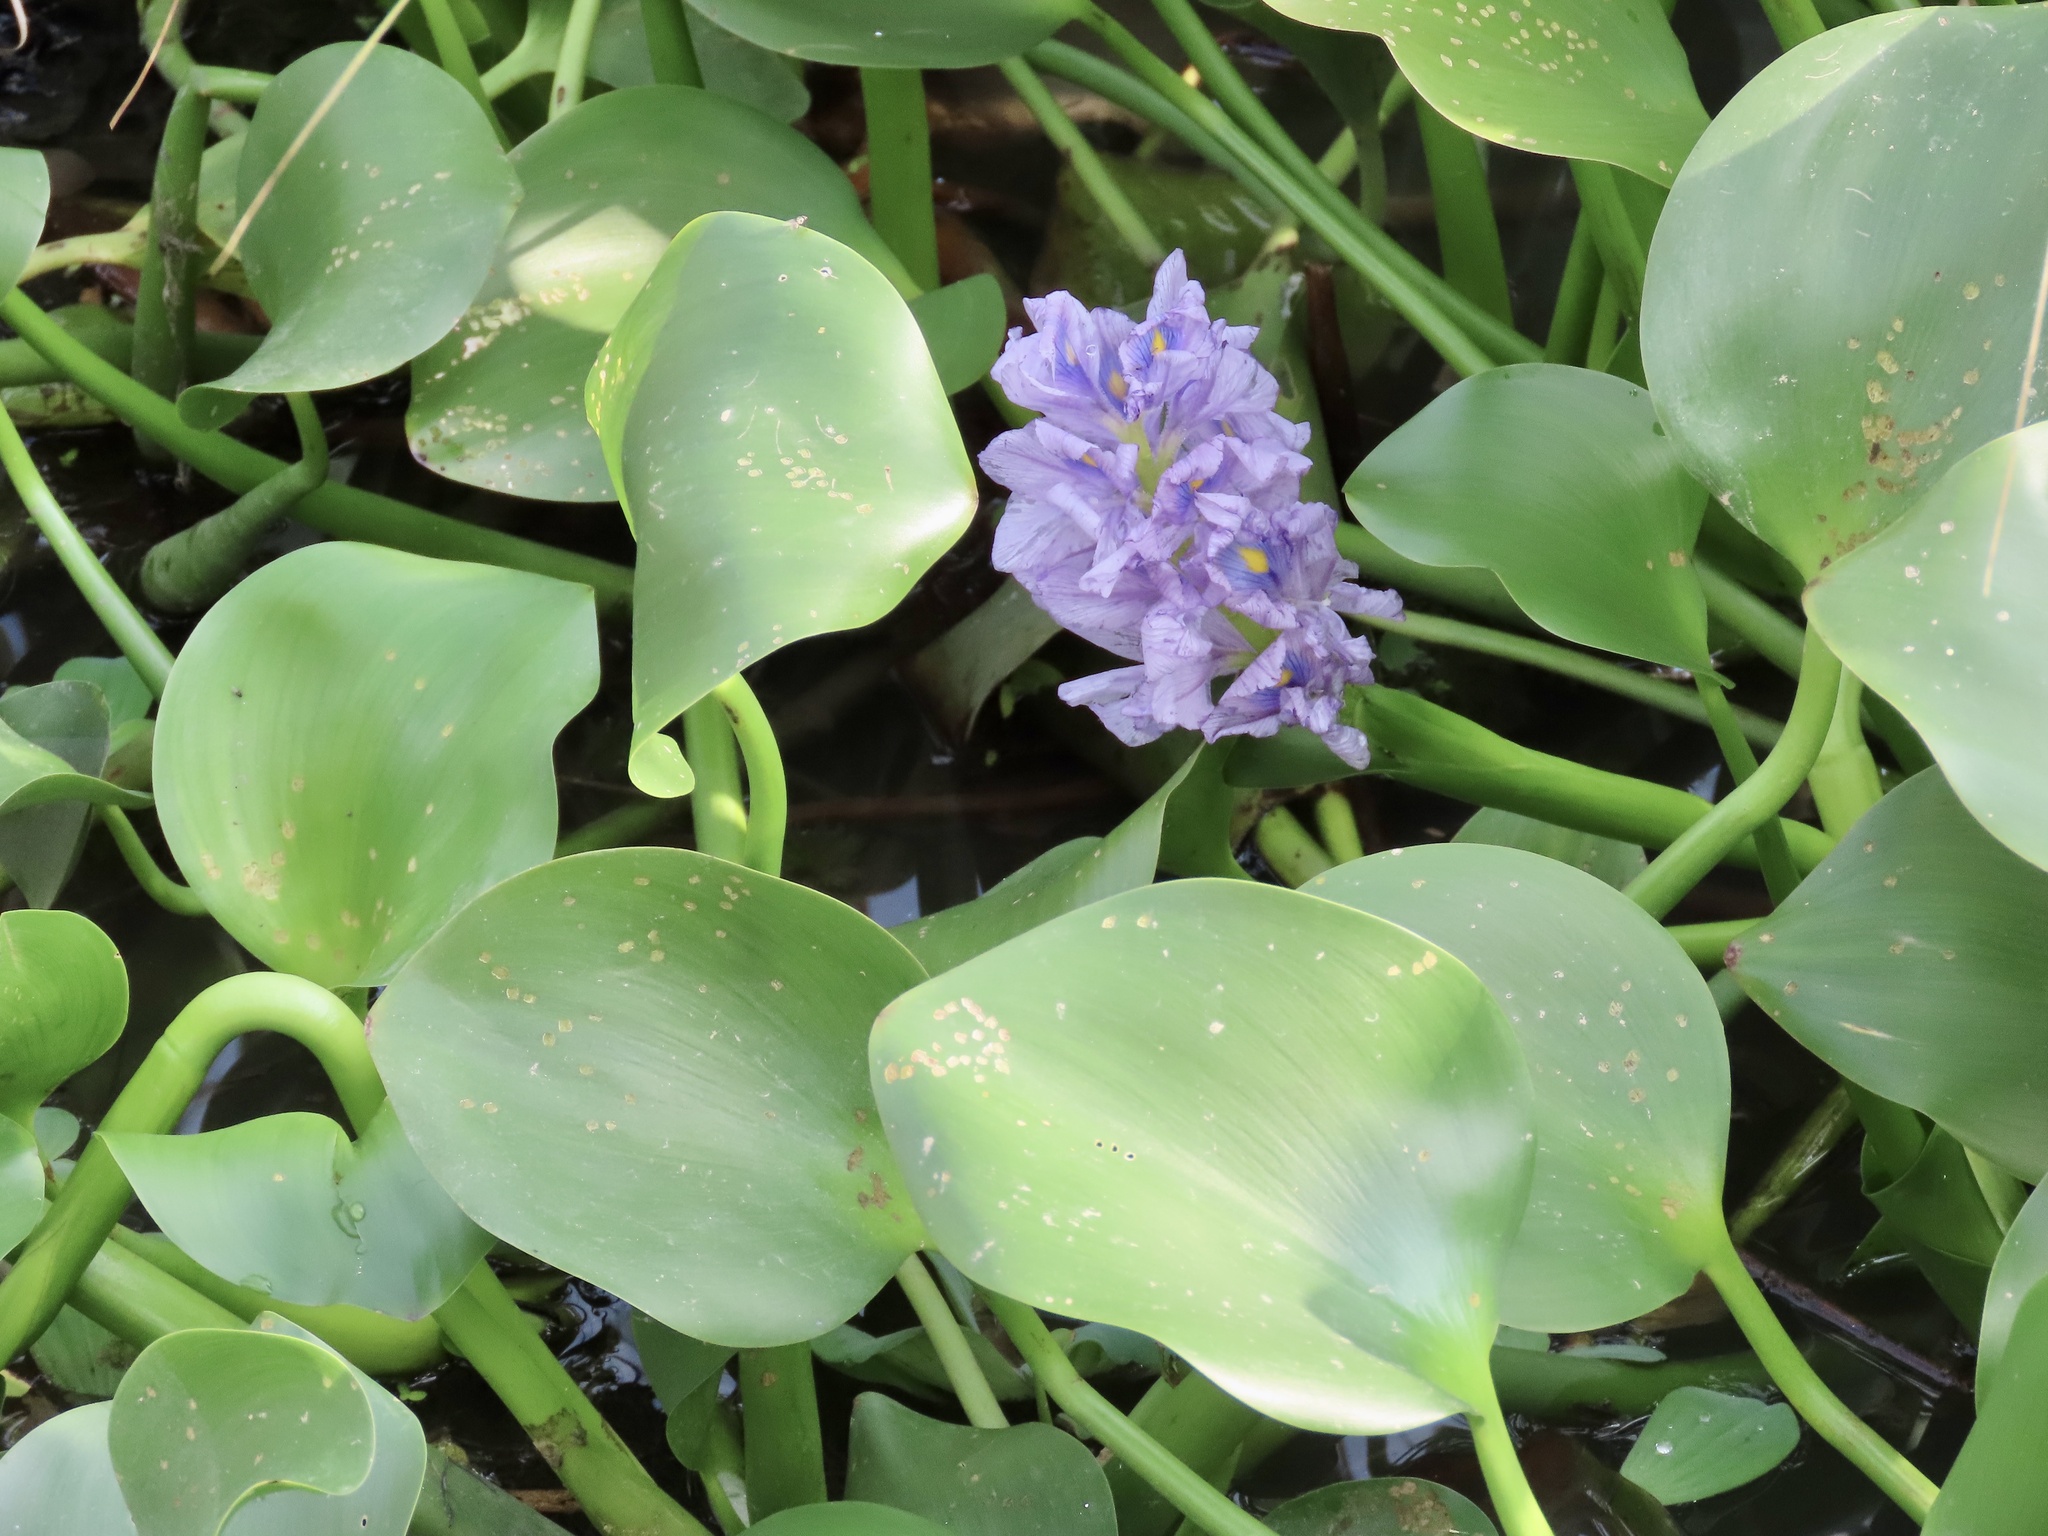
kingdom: Plantae
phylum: Tracheophyta
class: Liliopsida
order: Commelinales
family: Pontederiaceae
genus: Pontederia
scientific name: Pontederia crassipes
